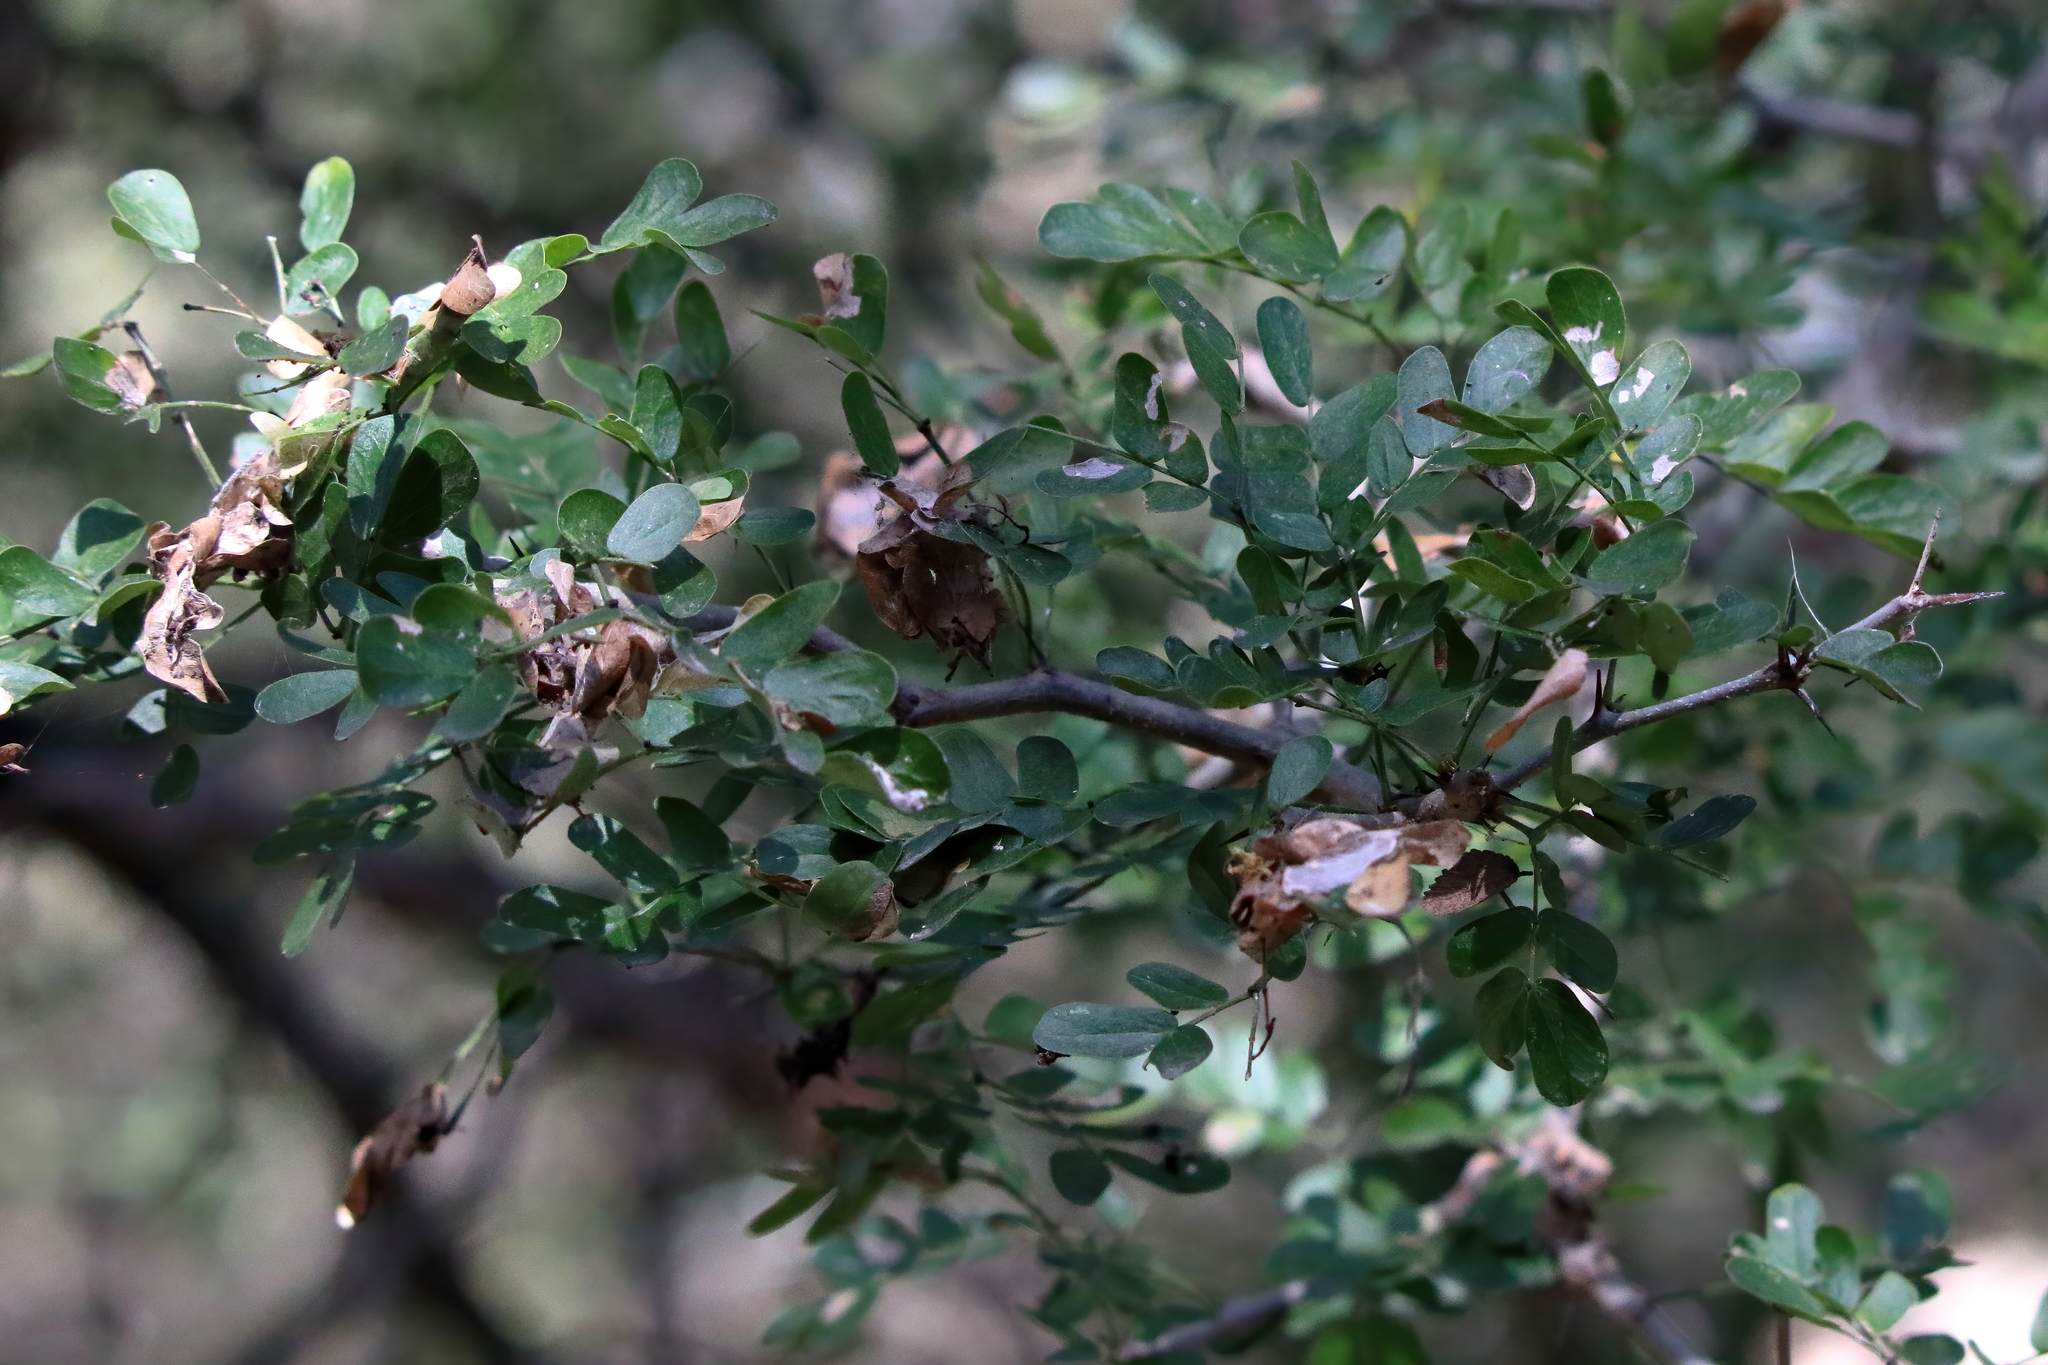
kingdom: Plantae
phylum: Tracheophyta
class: Magnoliopsida
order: Fabales
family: Fabaceae
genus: Ebenopsis
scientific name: Ebenopsis ebano
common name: Ebony blackbead
